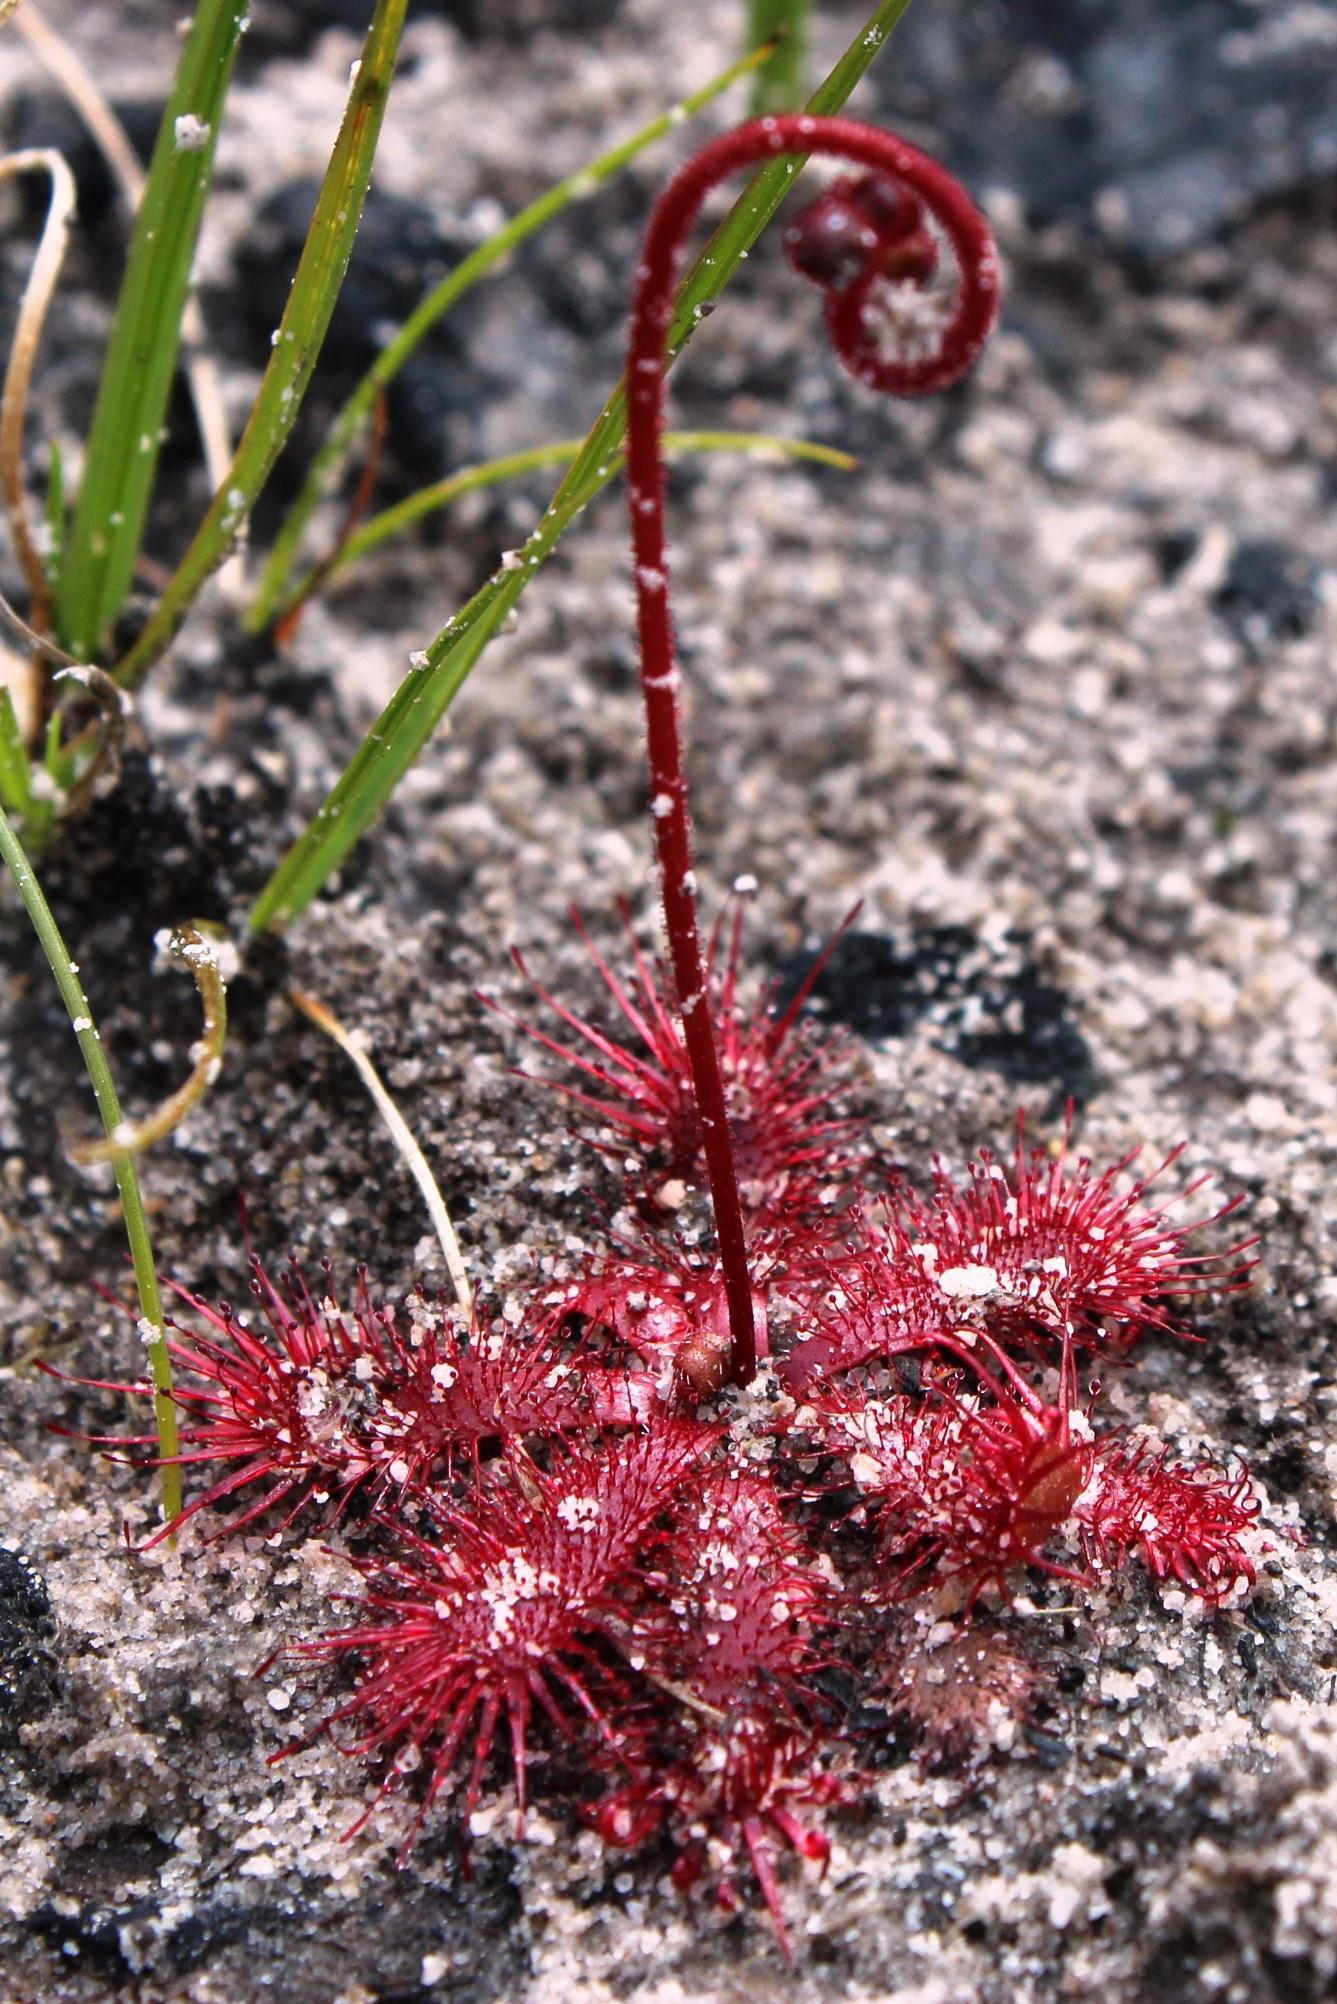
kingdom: Plantae
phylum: Tracheophyta
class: Magnoliopsida
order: Caryophyllales
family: Droseraceae
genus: Drosera
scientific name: Drosera trinervia
